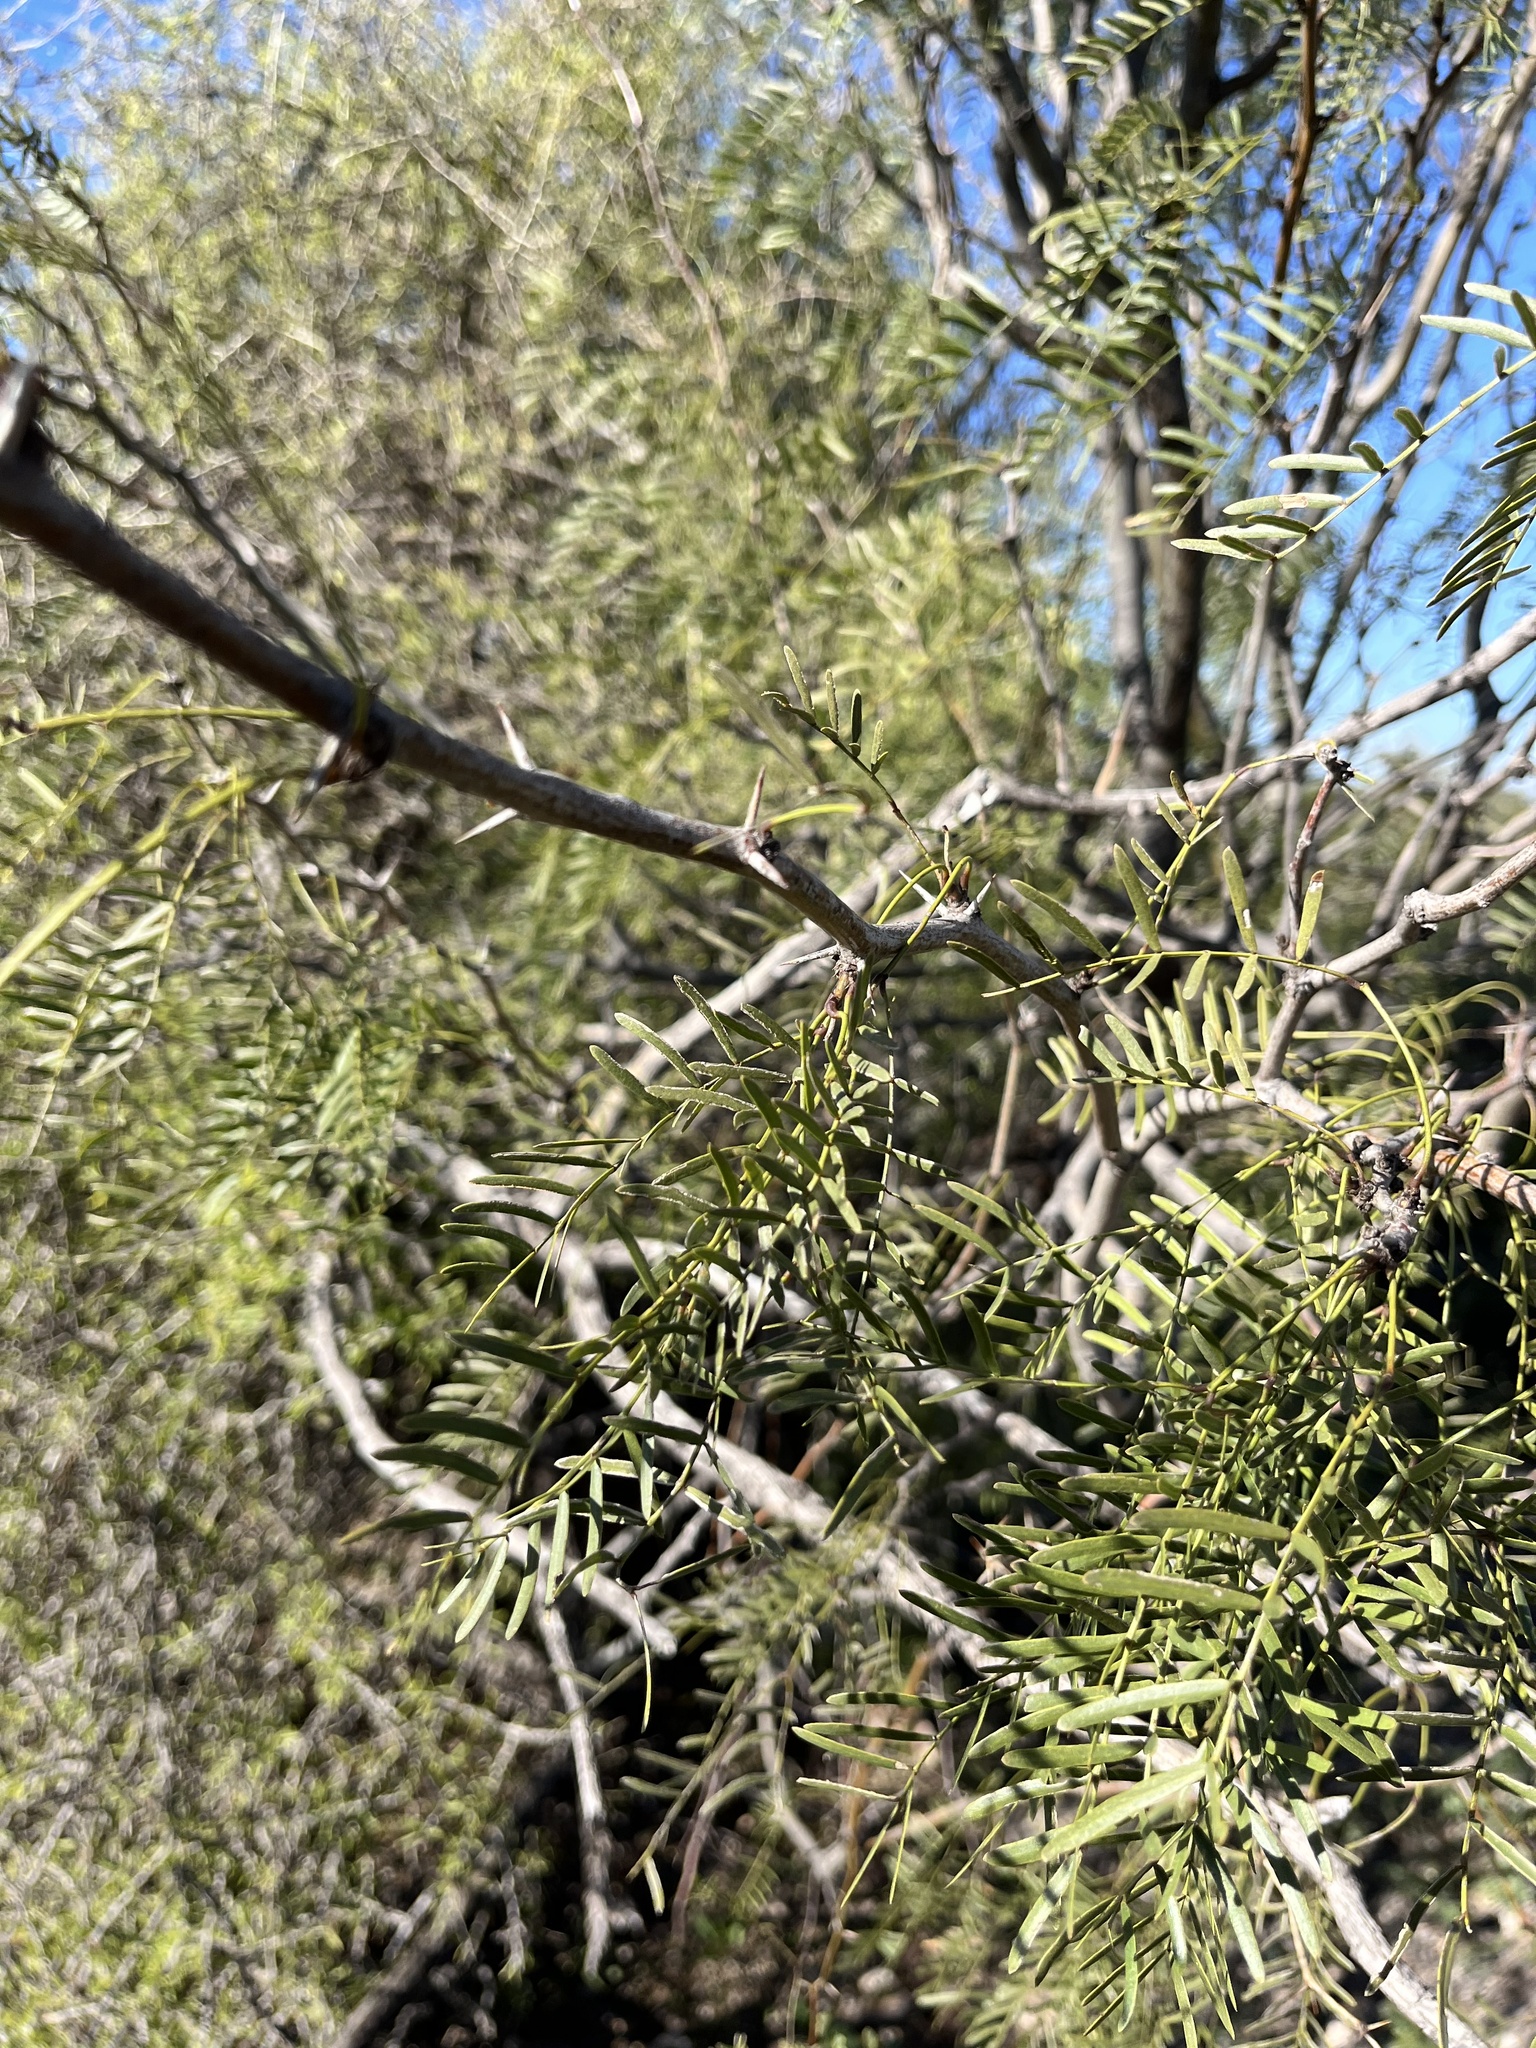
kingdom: Plantae
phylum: Tracheophyta
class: Magnoliopsida
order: Fabales
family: Fabaceae
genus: Prosopis
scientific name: Prosopis glandulosa
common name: Honey mesquite
